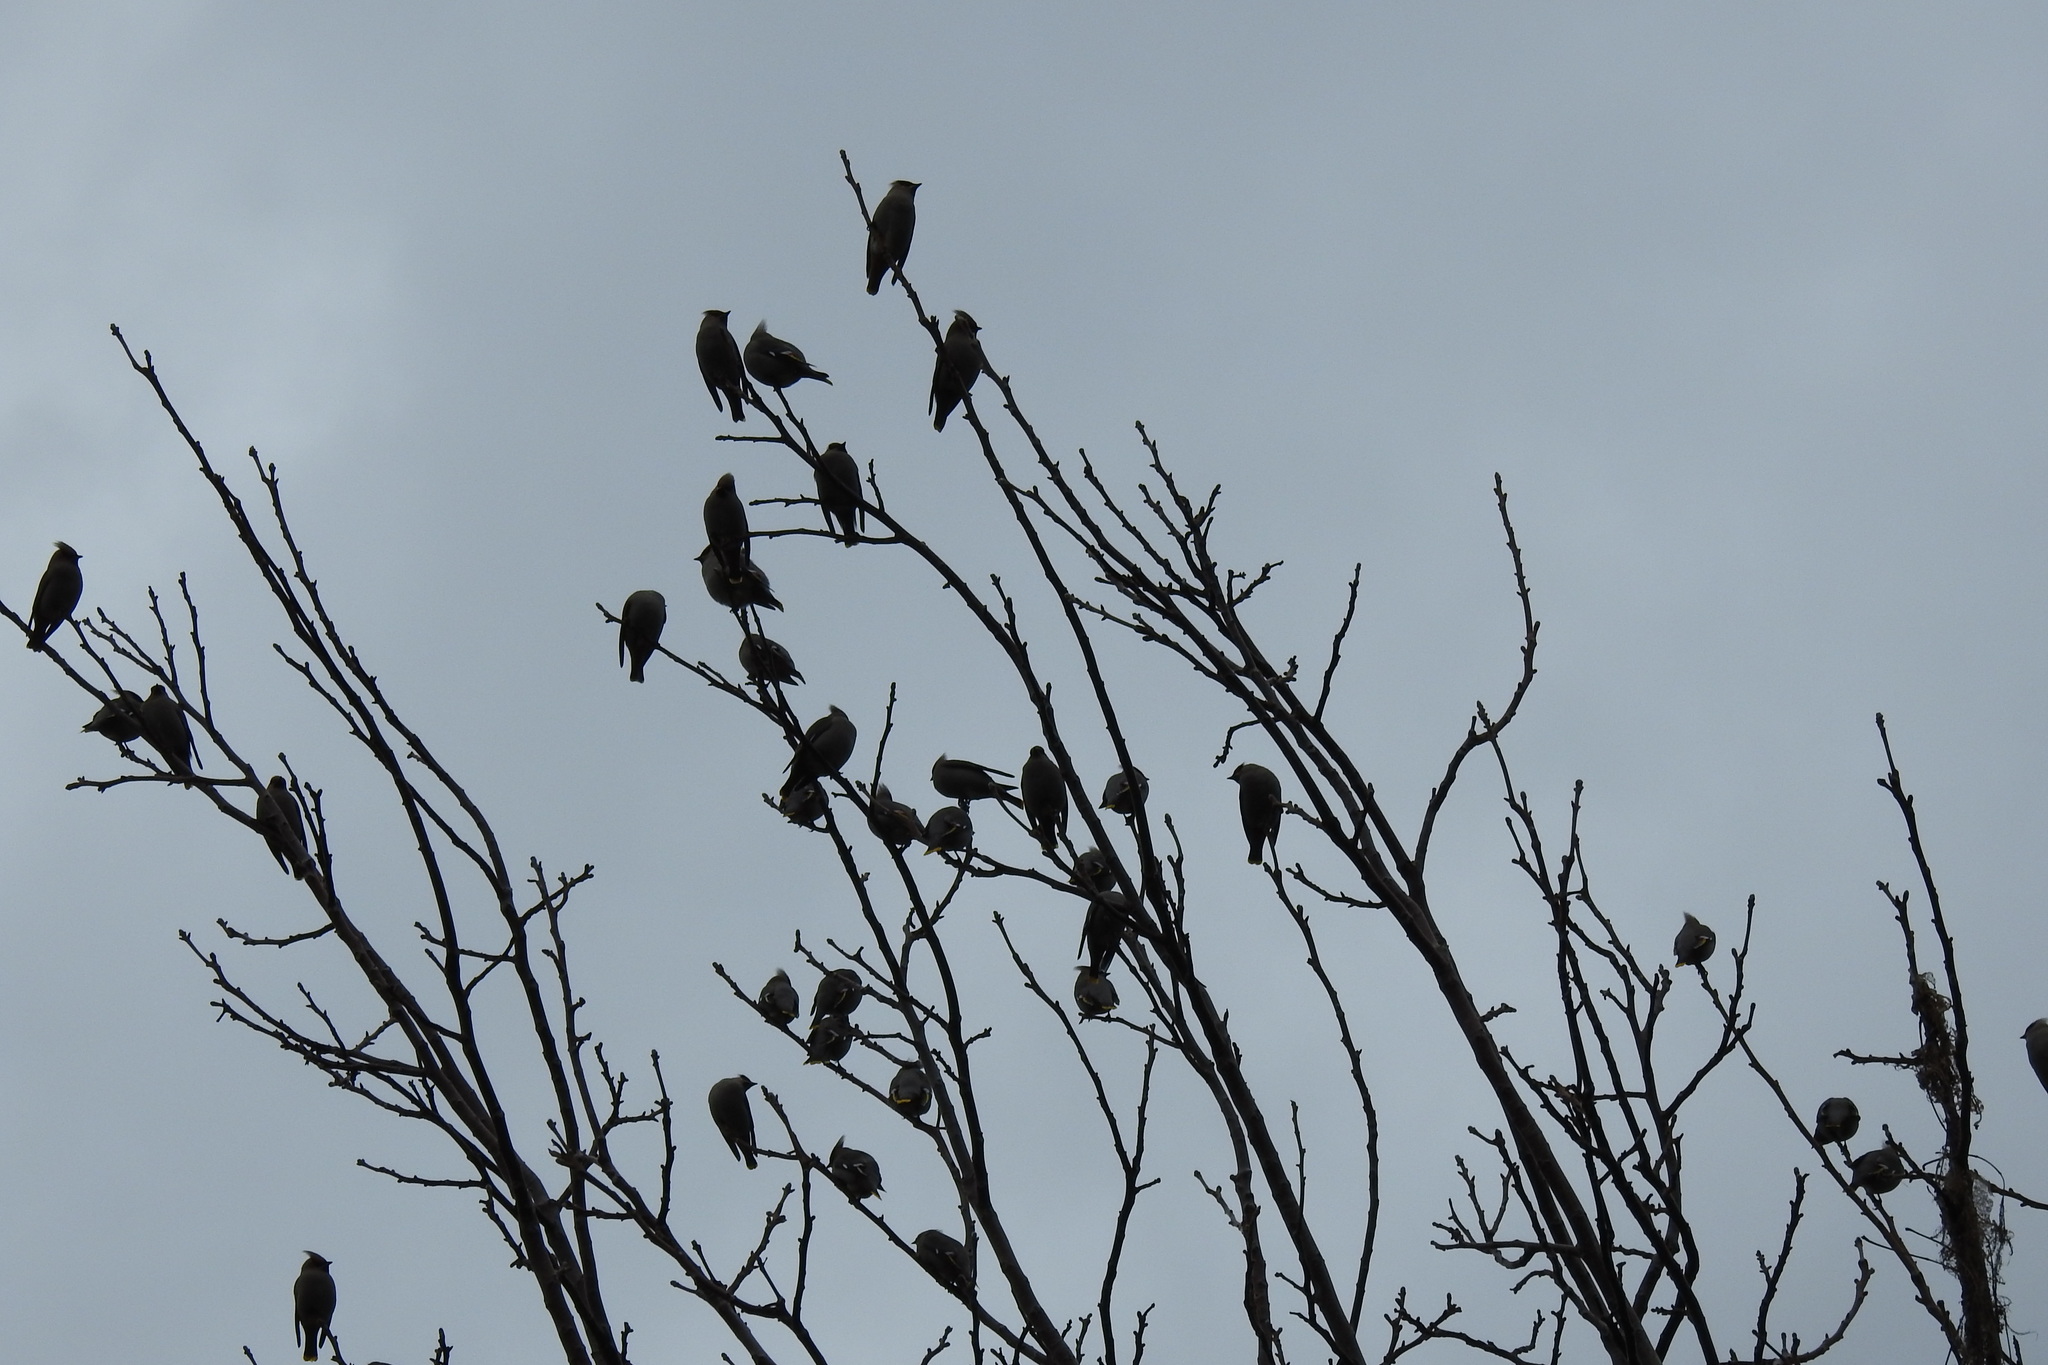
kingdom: Animalia
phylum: Chordata
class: Aves
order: Passeriformes
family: Bombycillidae
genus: Bombycilla
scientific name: Bombycilla garrulus
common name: Bohemian waxwing
